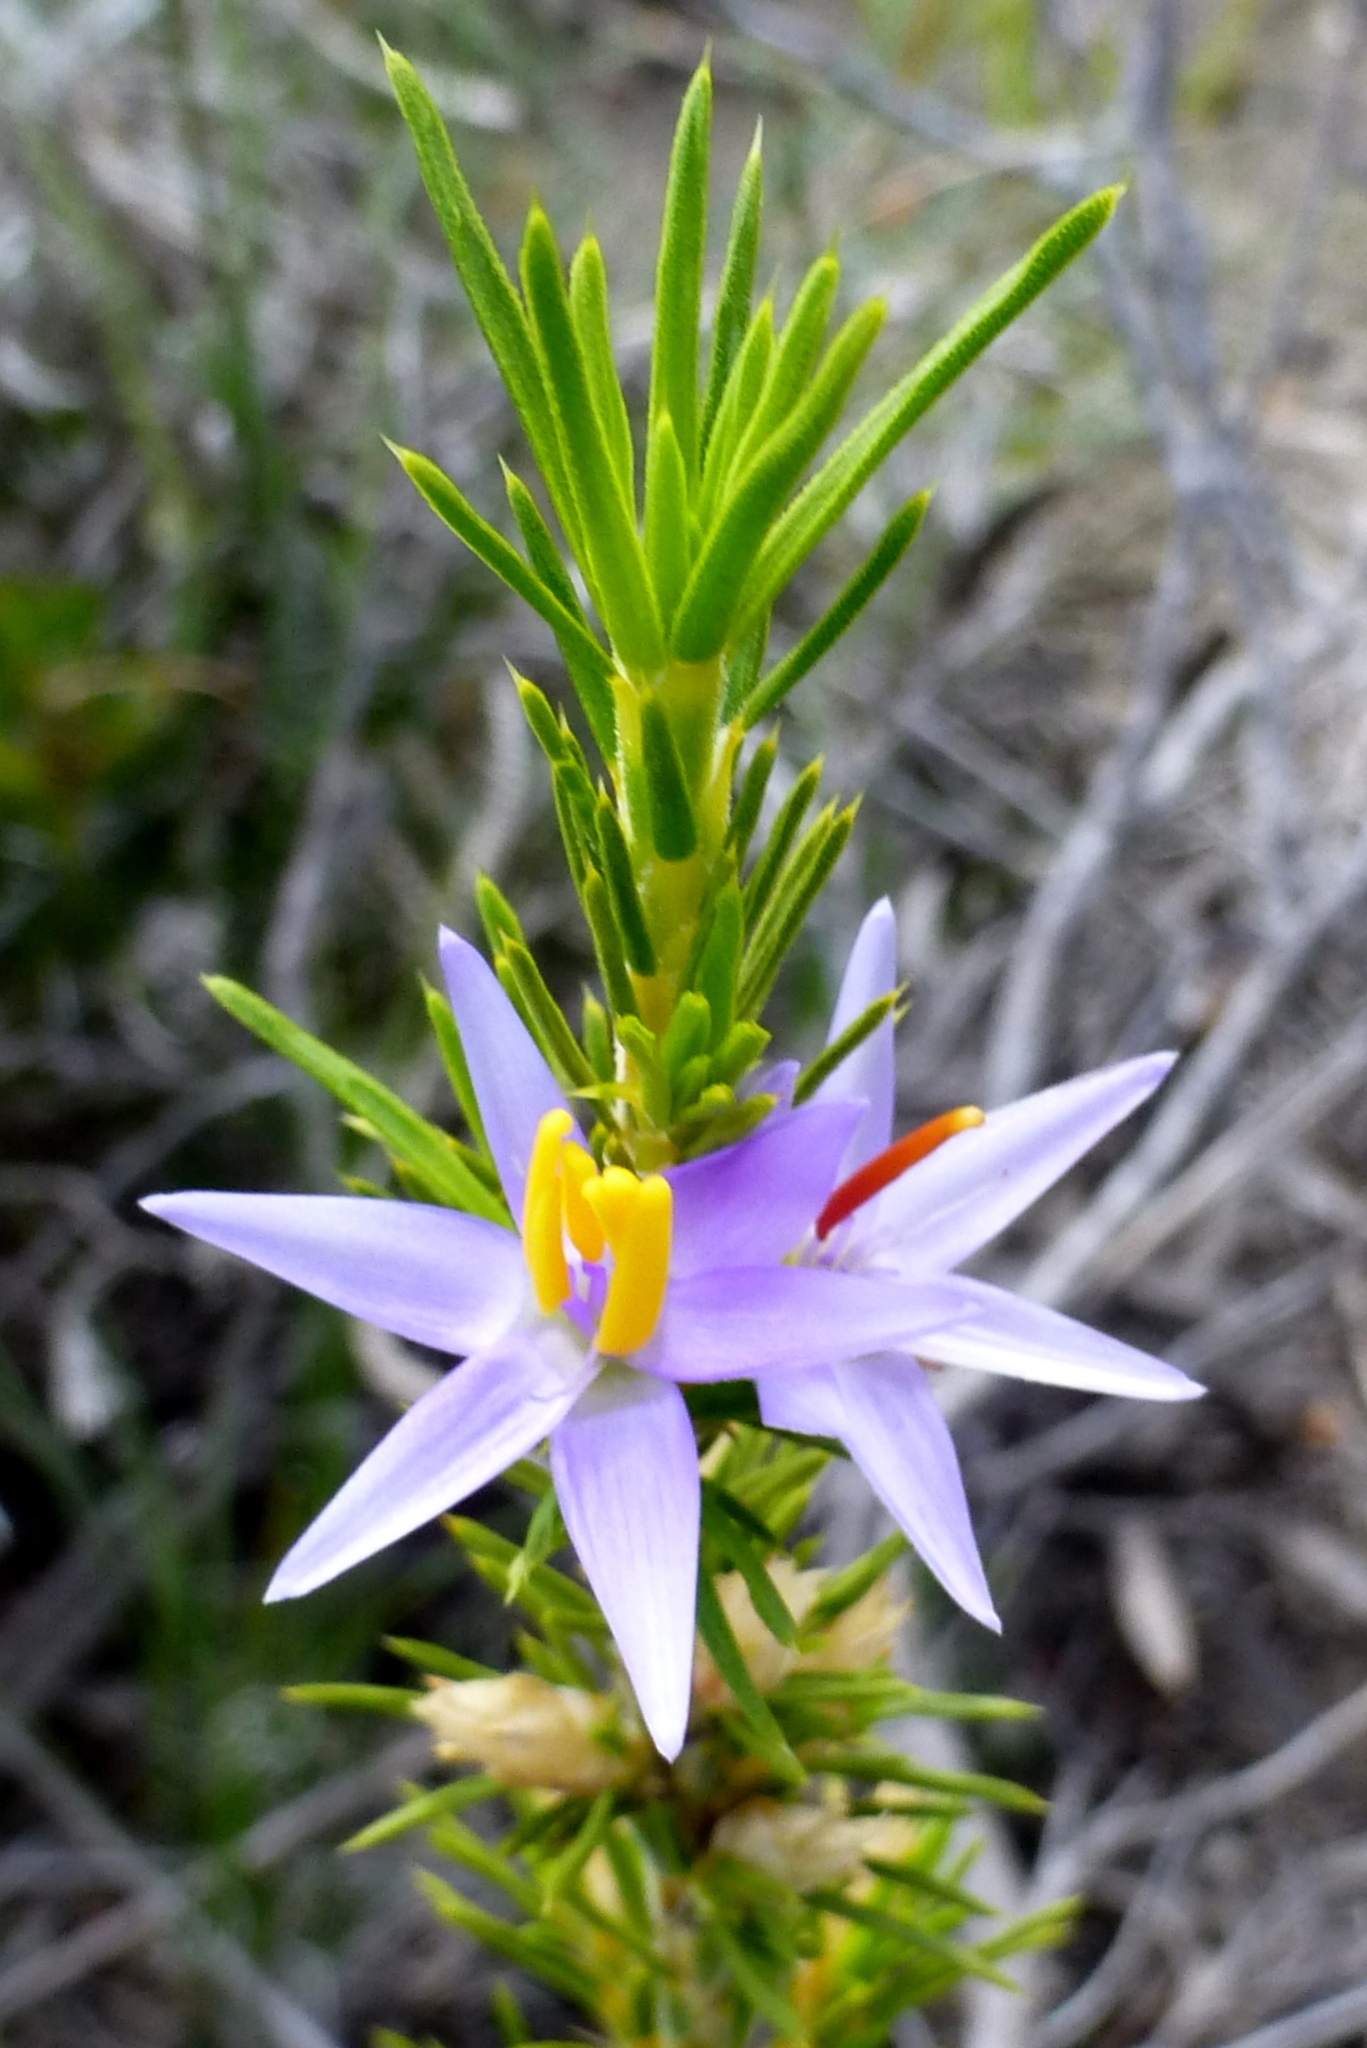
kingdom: Plantae
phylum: Tracheophyta
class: Liliopsida
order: Arecales
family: Dasypogonaceae
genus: Calectasia
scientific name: Calectasia narragara
